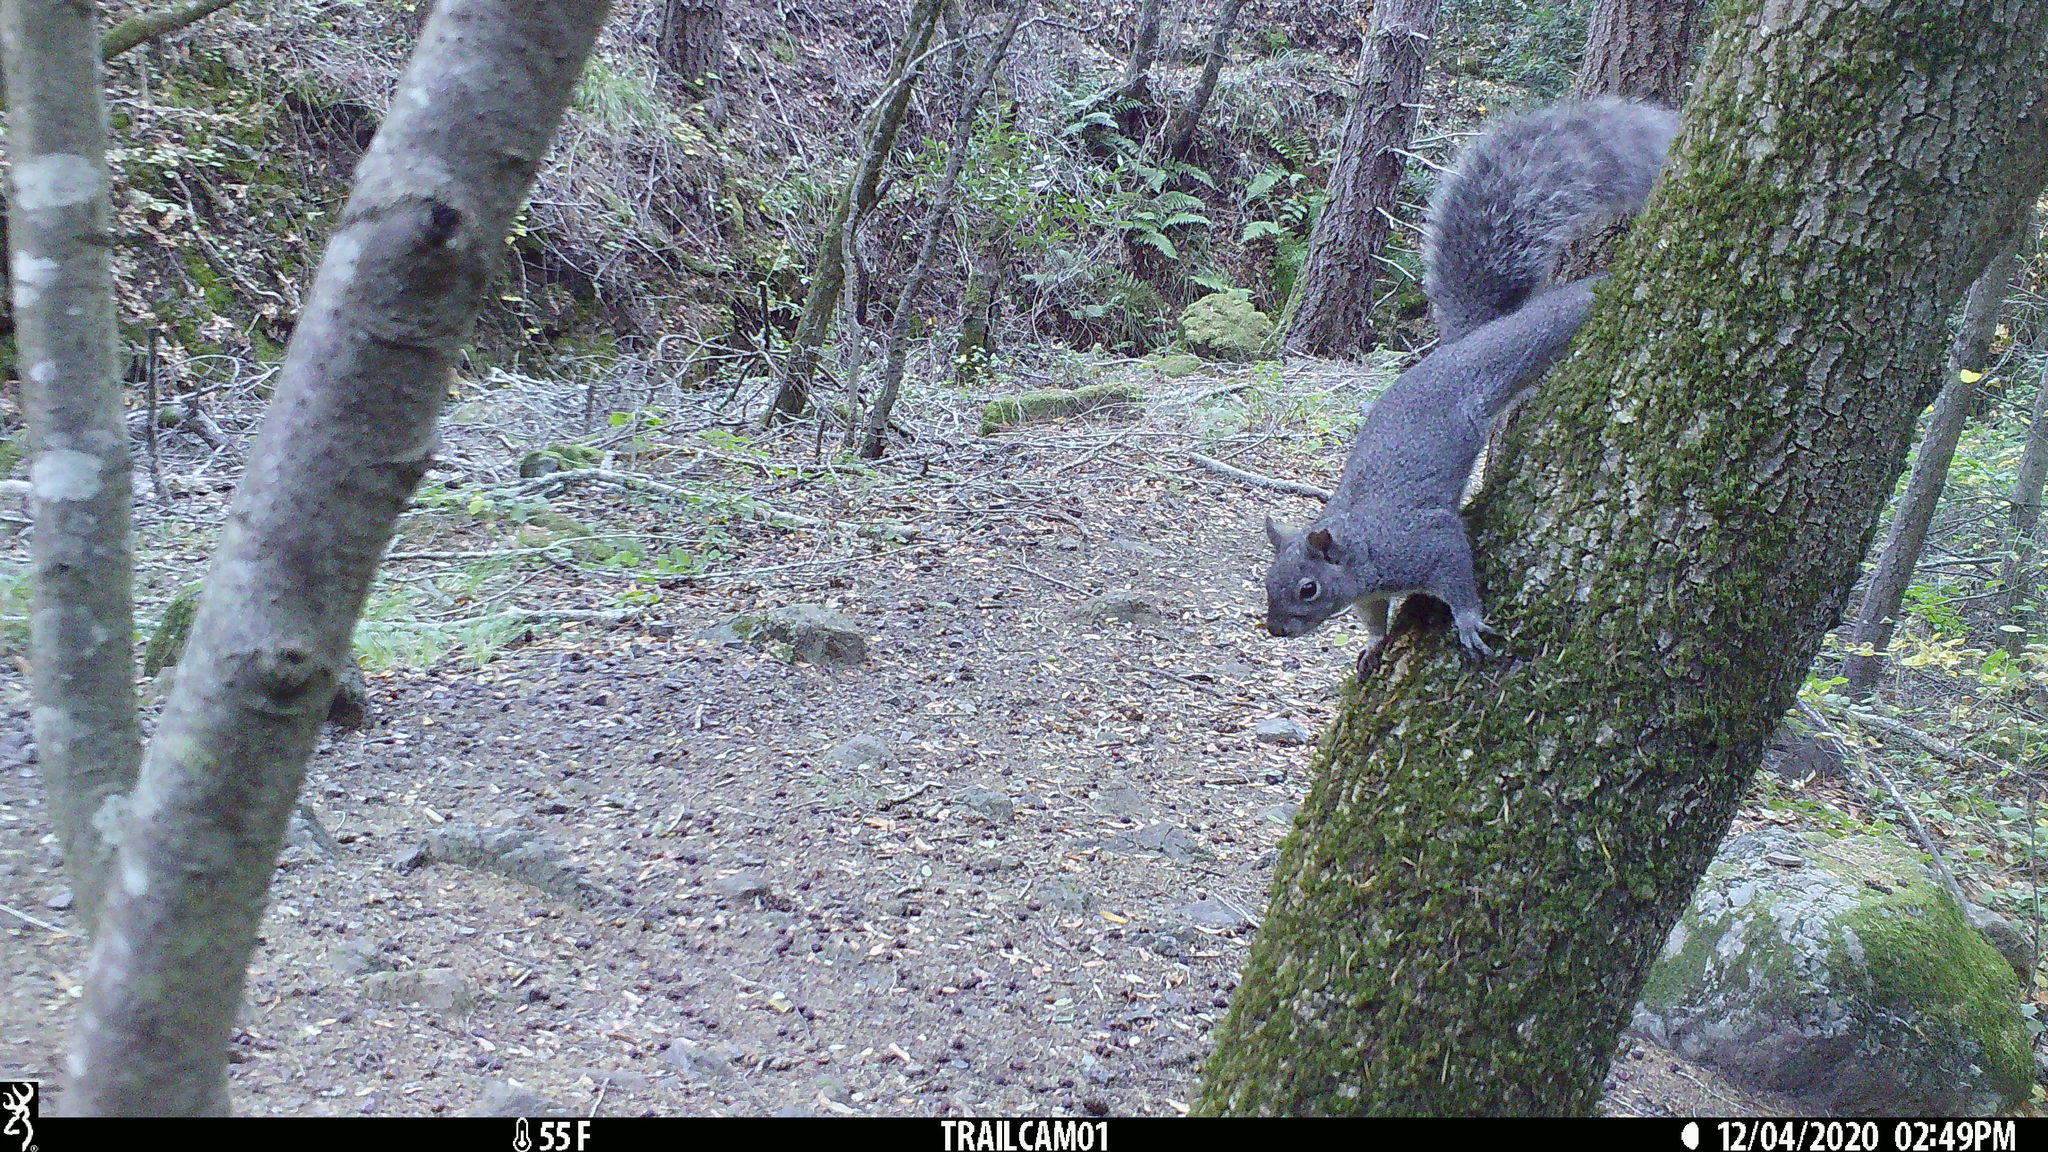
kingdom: Animalia
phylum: Chordata
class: Mammalia
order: Rodentia
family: Sciuridae
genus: Sciurus
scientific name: Sciurus griseus
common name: Western gray squirrel
